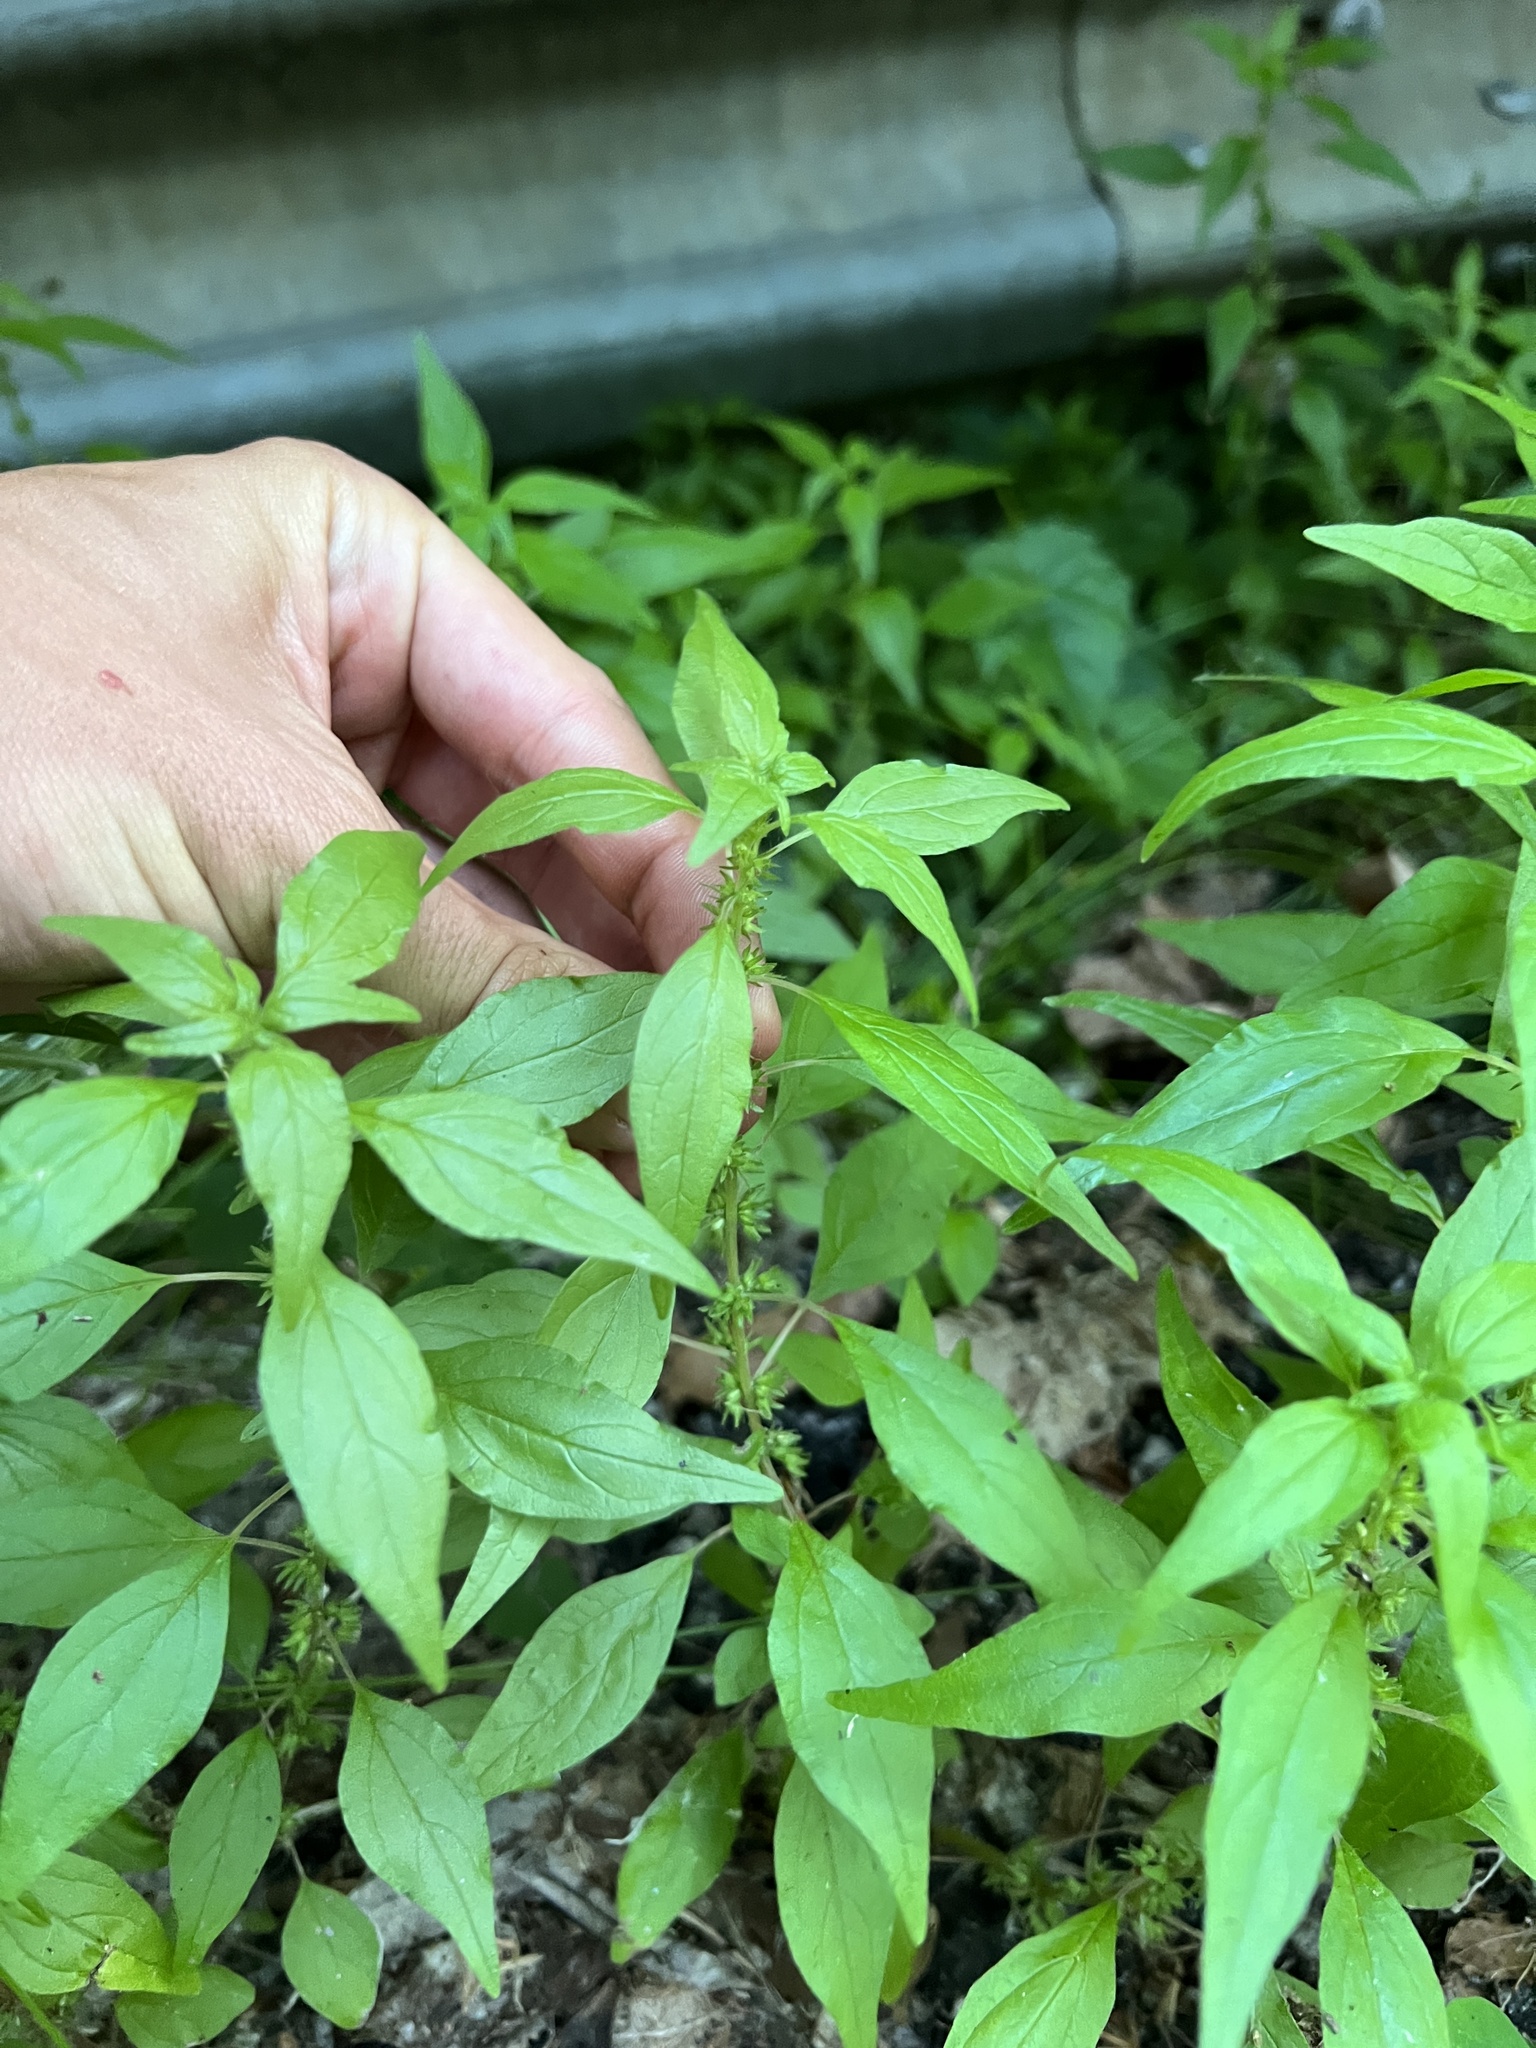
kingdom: Plantae
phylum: Tracheophyta
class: Magnoliopsida
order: Rosales
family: Urticaceae
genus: Parietaria
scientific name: Parietaria pensylvanica
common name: Pennsylvania pellitory
